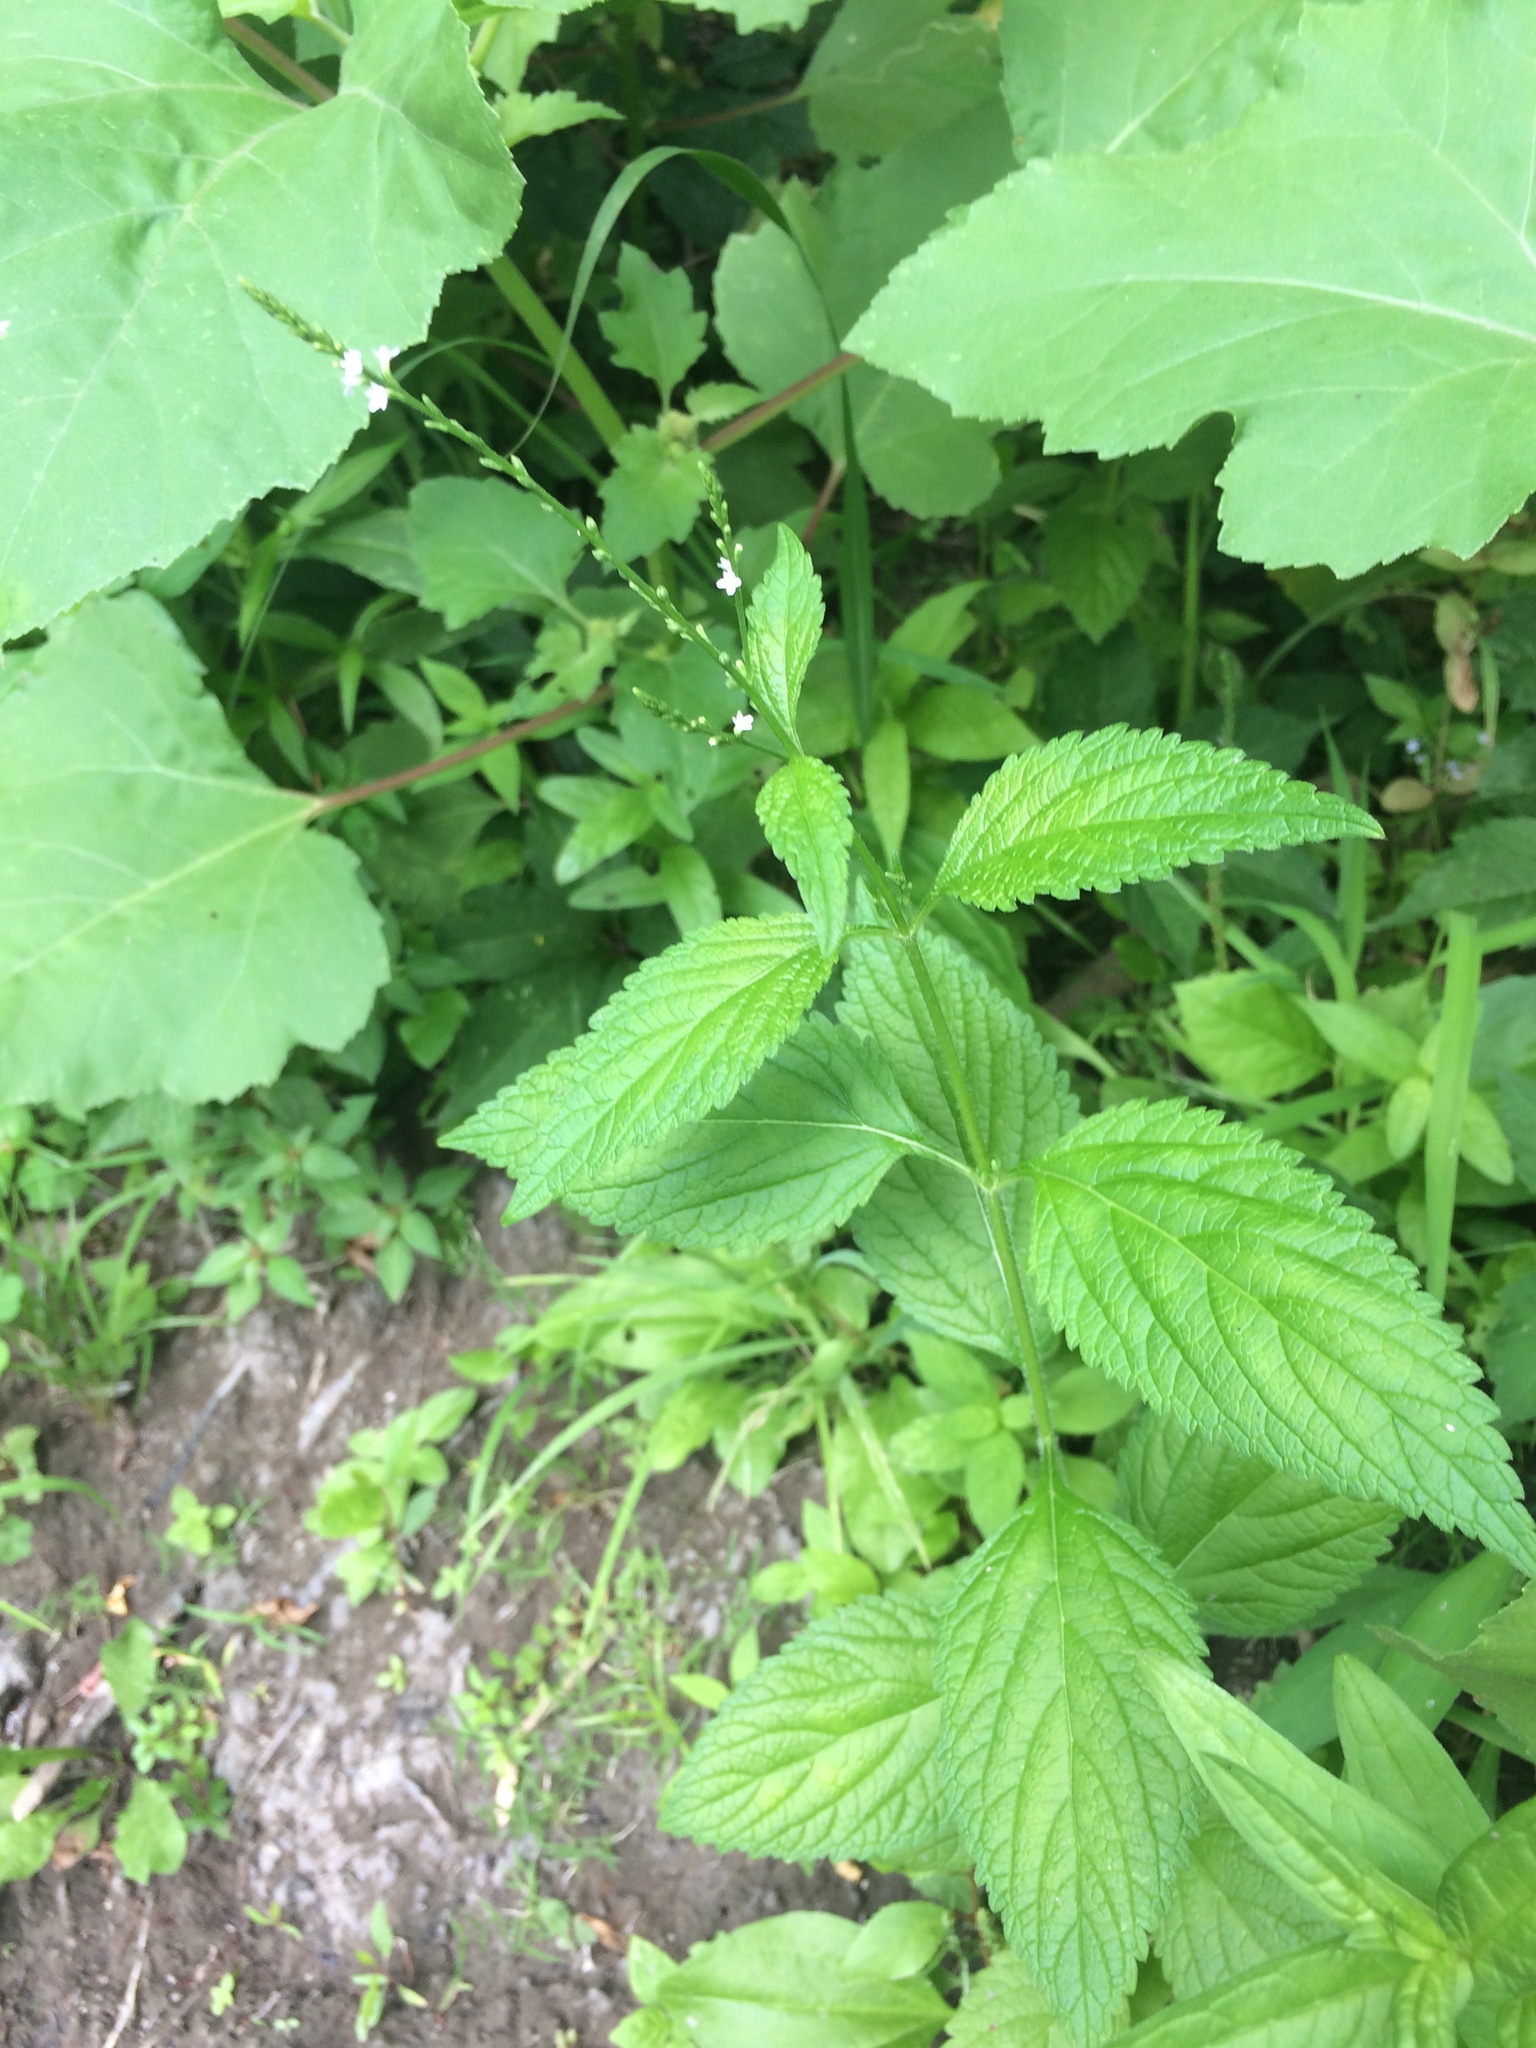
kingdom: Plantae
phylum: Tracheophyta
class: Magnoliopsida
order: Lamiales
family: Verbenaceae
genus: Verbena
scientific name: Verbena urticifolia
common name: Nettle-leaved vervain
